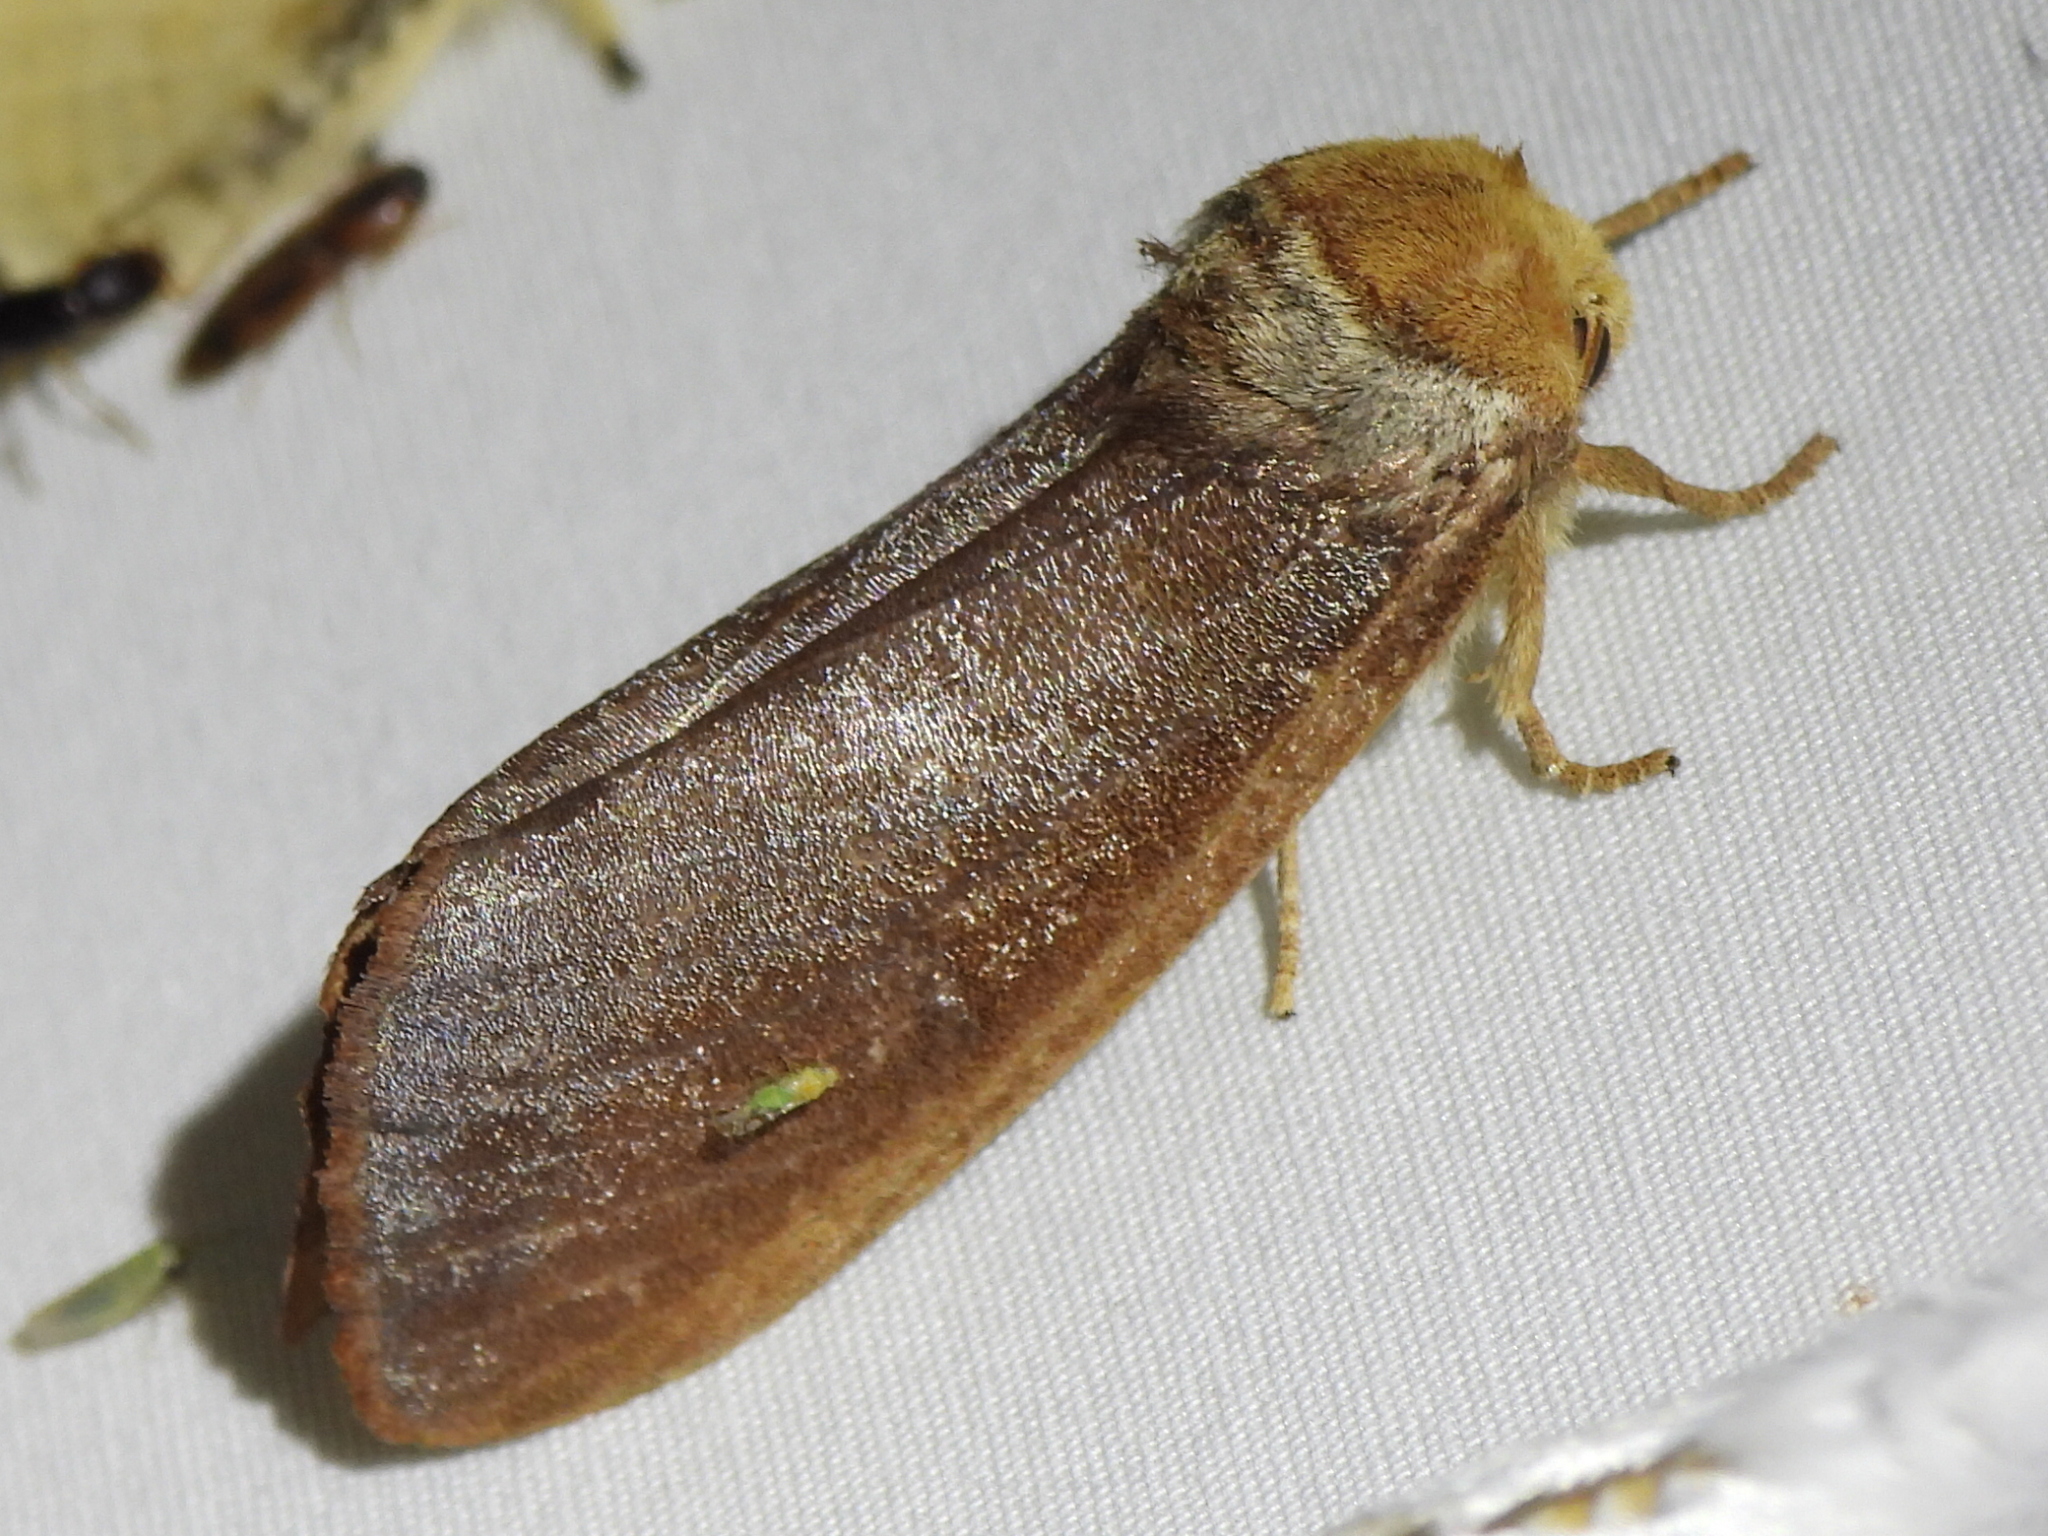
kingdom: Animalia
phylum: Arthropoda
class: Insecta
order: Lepidoptera
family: Notodontidae
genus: Datana
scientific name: Datana diffidens
